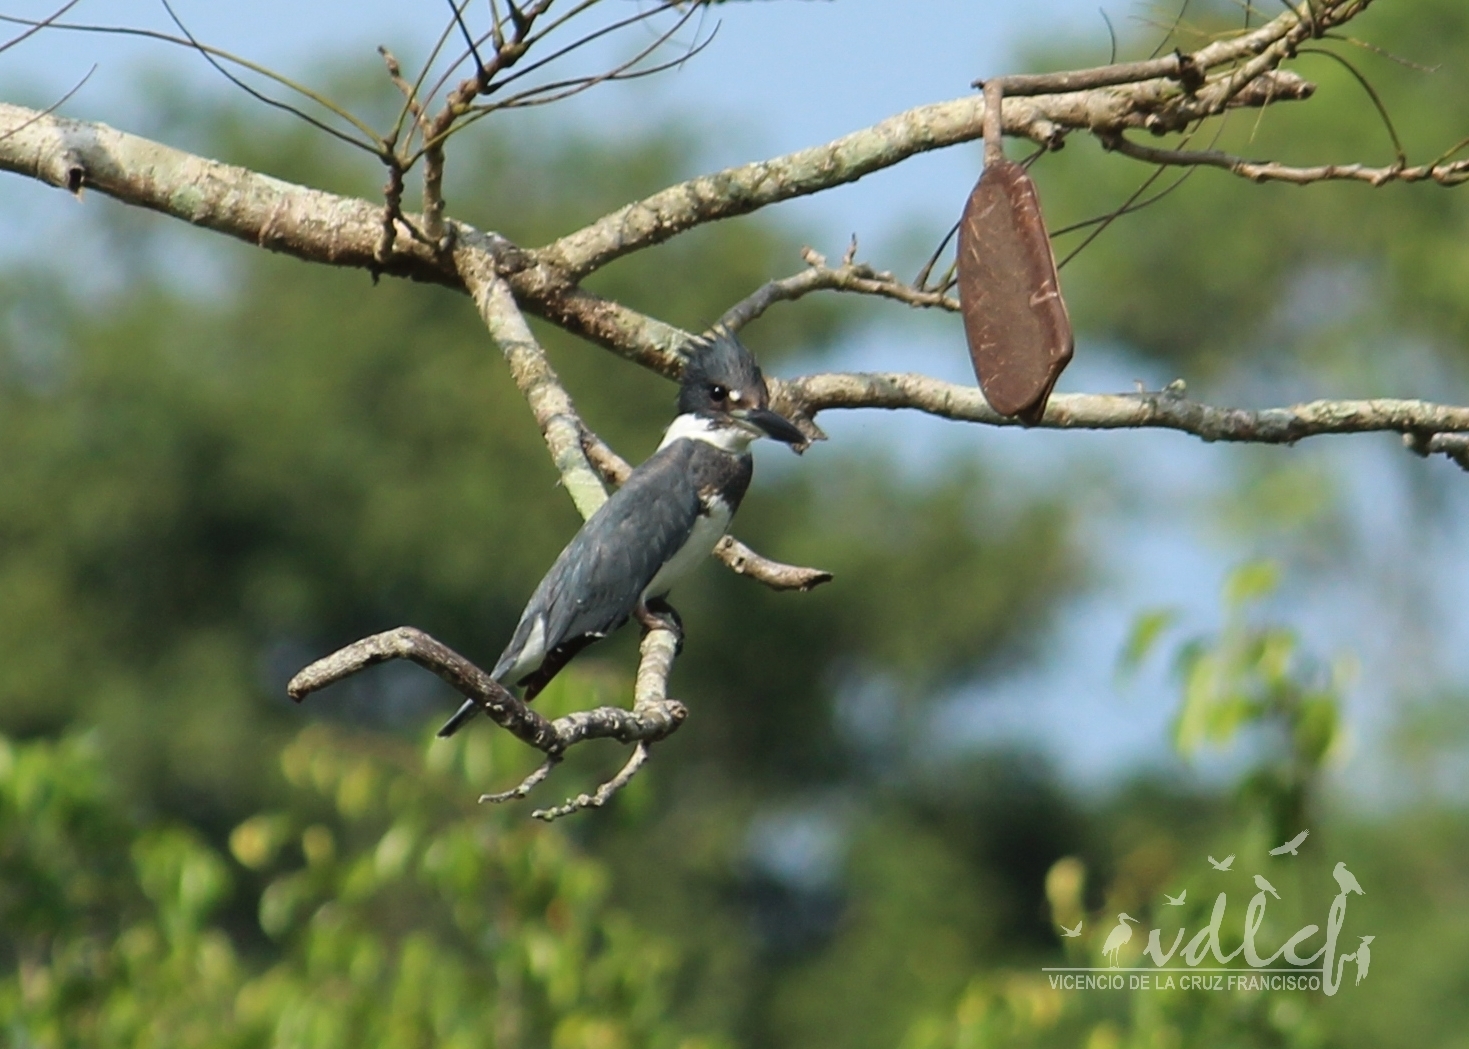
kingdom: Animalia
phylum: Chordata
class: Aves
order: Coraciiformes
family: Alcedinidae
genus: Megaceryle
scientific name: Megaceryle alcyon
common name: Belted kingfisher
